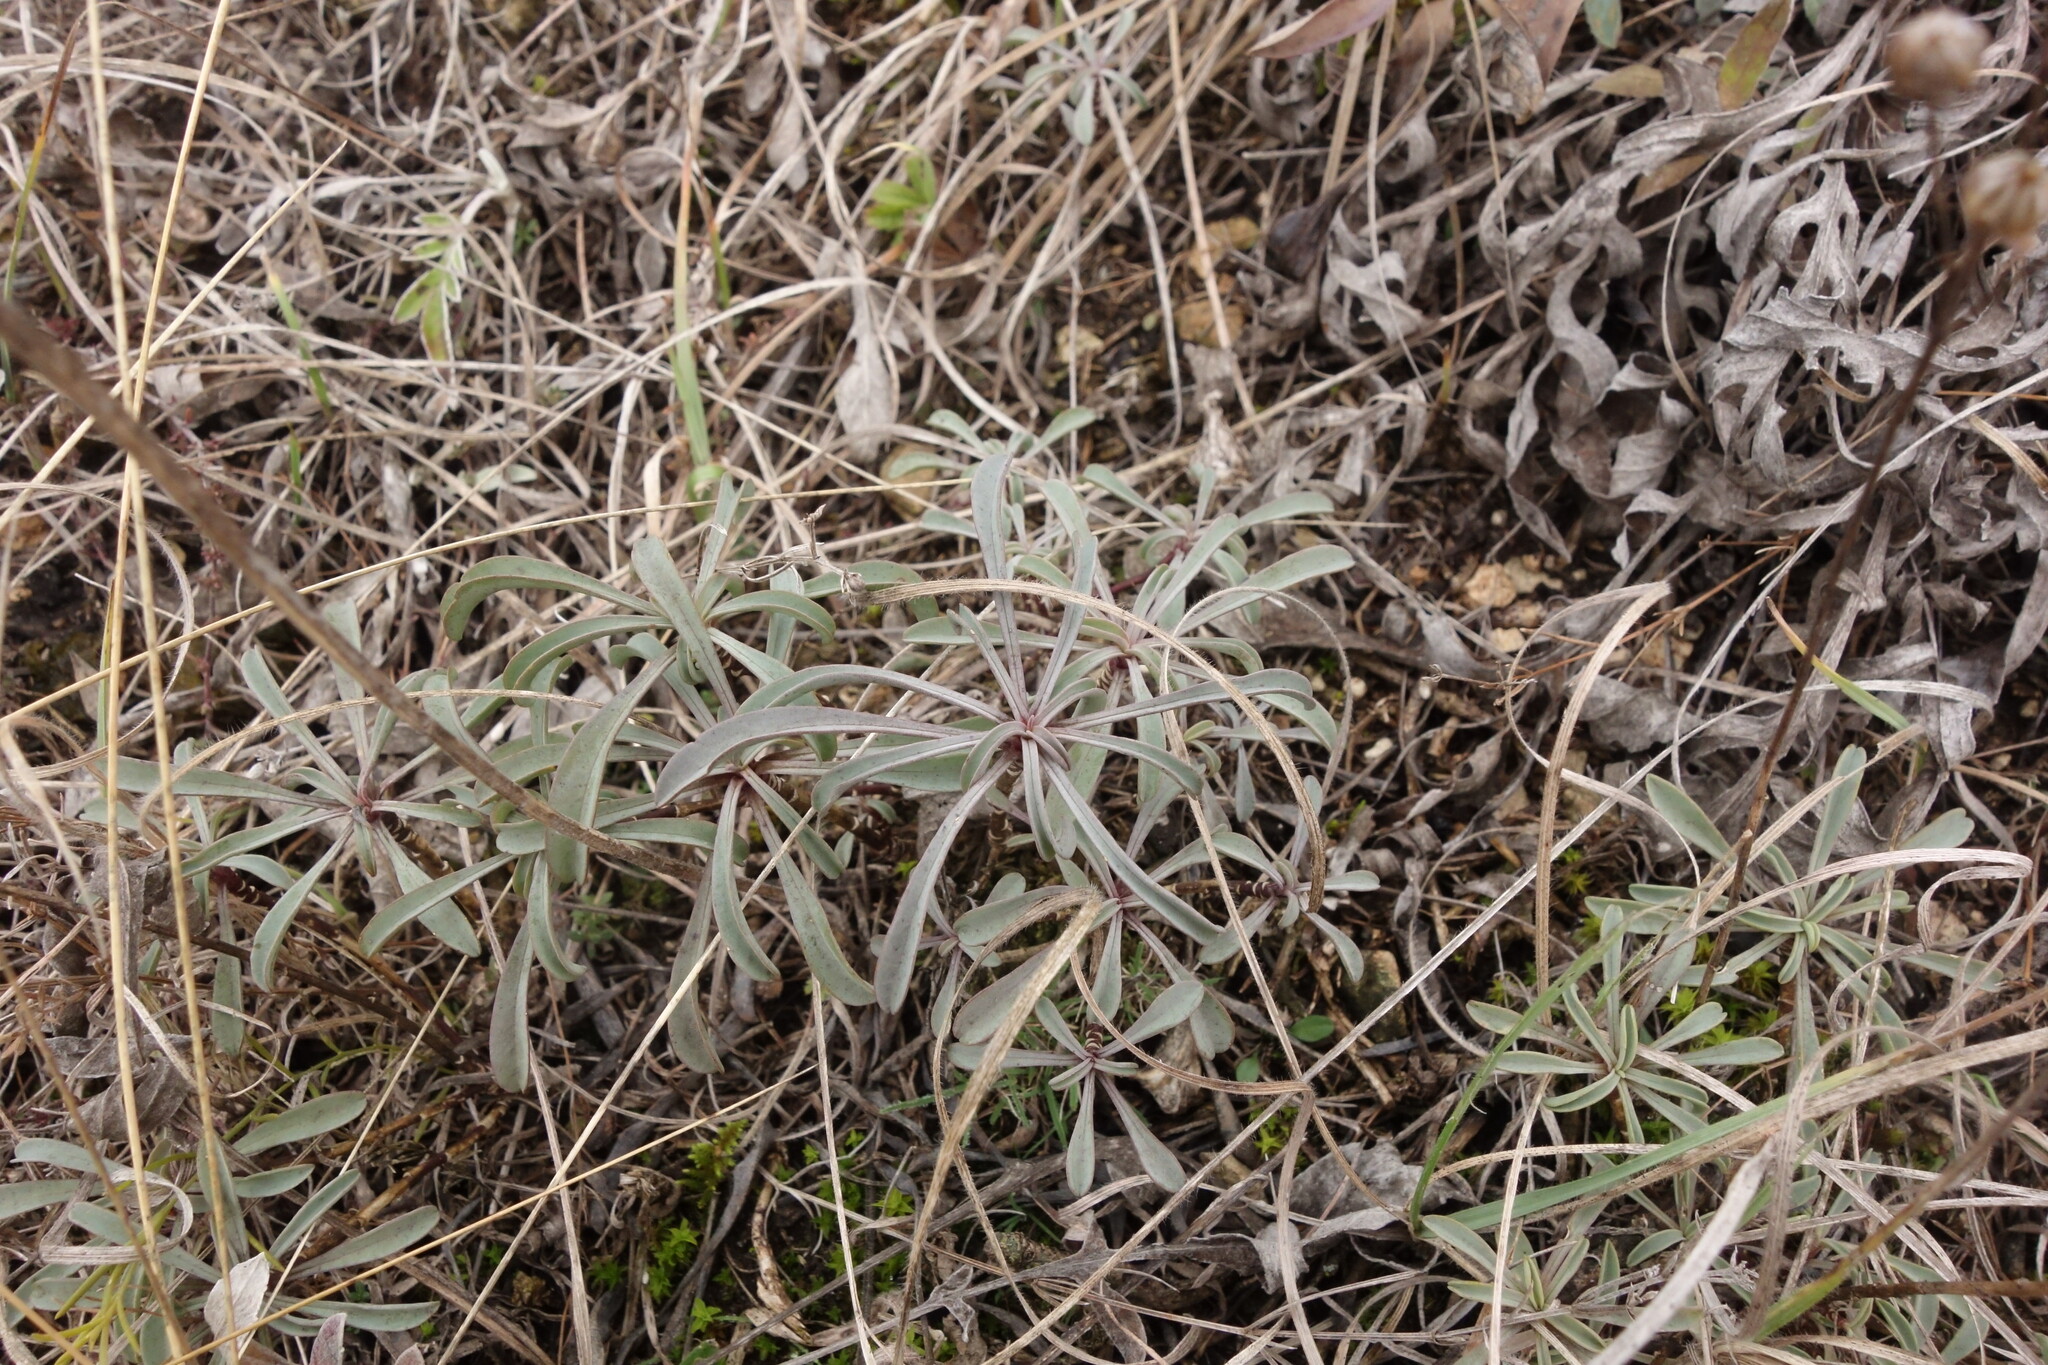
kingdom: Plantae
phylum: Tracheophyta
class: Magnoliopsida
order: Malpighiales
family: Linaceae
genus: Linum
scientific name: Linum ucranicum
